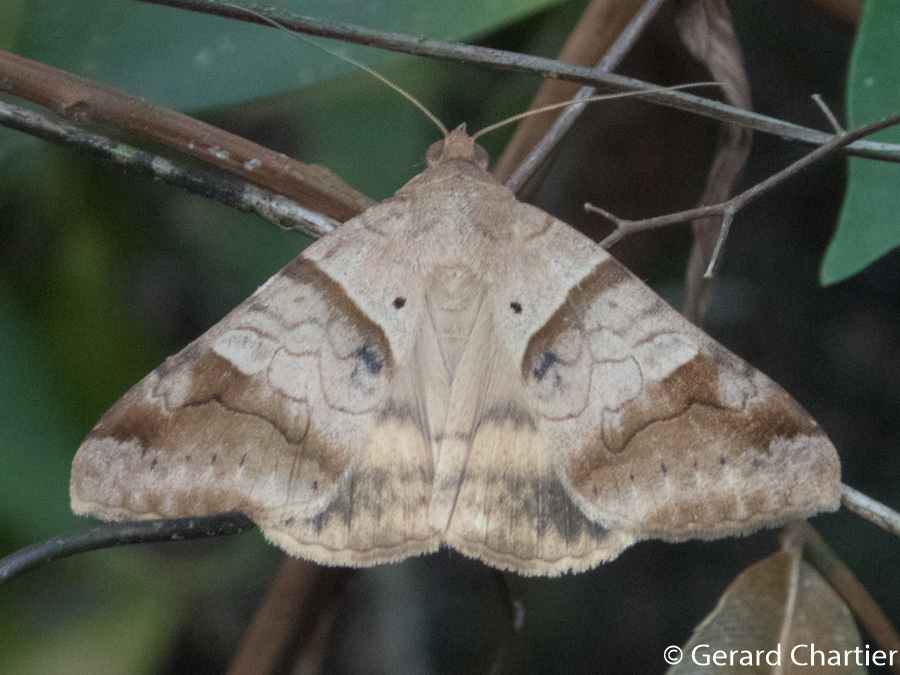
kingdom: Animalia
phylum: Arthropoda
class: Insecta
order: Lepidoptera
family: Erebidae
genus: Mocis
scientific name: Mocis undata
